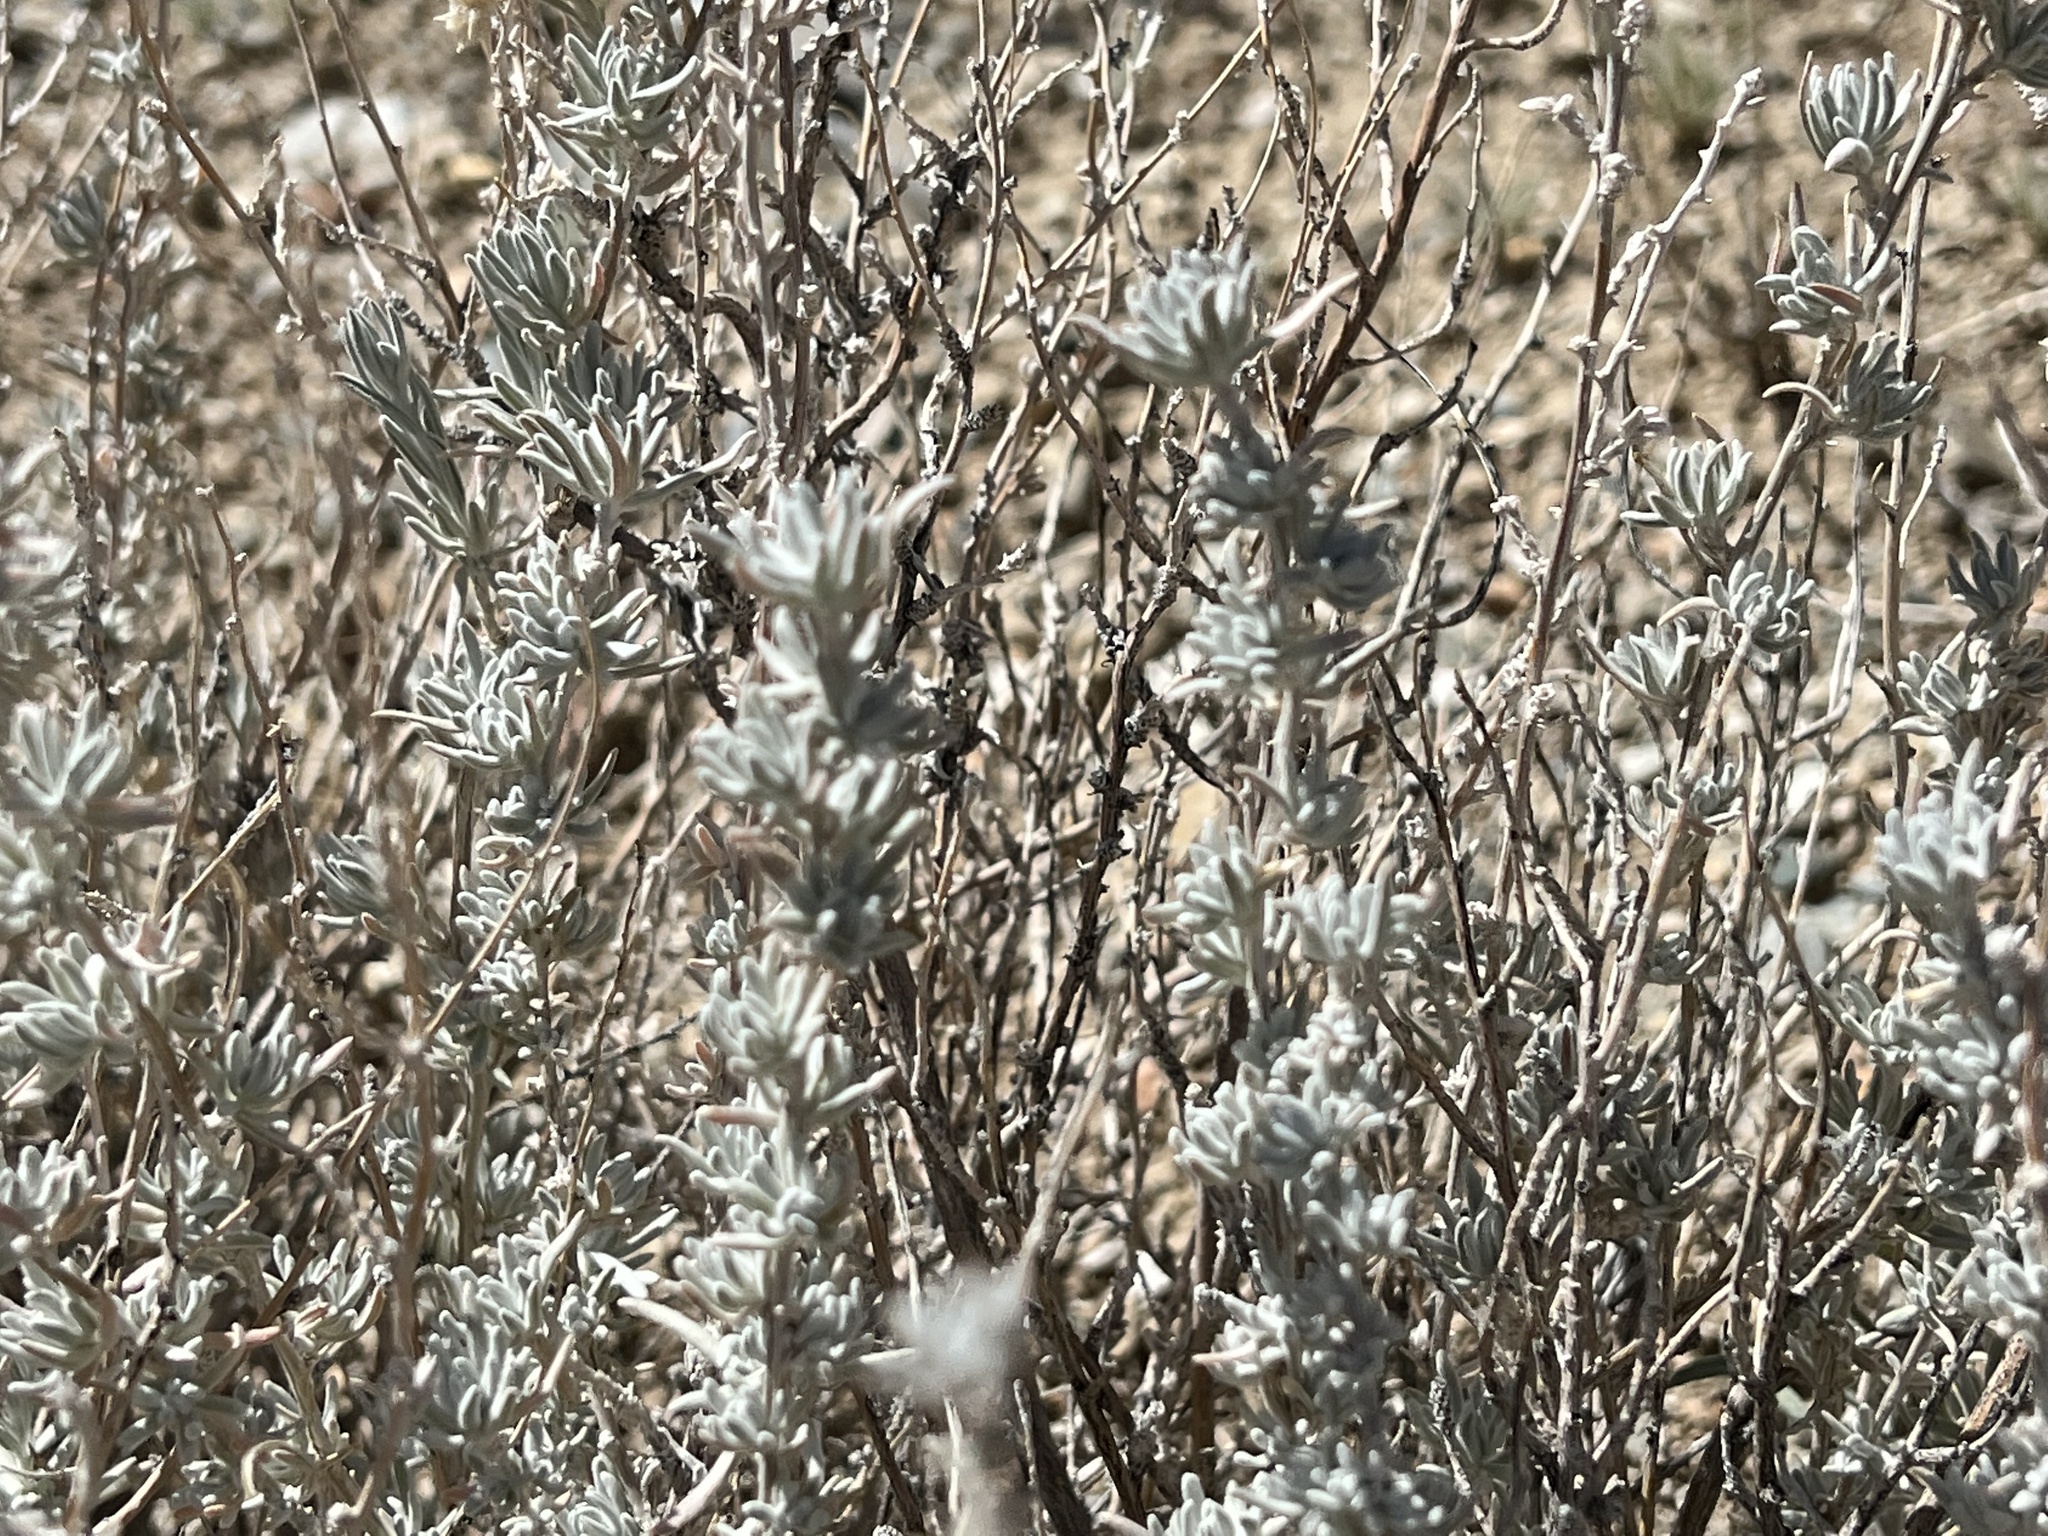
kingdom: Plantae
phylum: Tracheophyta
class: Magnoliopsida
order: Caryophyllales
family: Amaranthaceae
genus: Krascheninnikovia
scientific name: Krascheninnikovia lanata
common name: Winterfat
